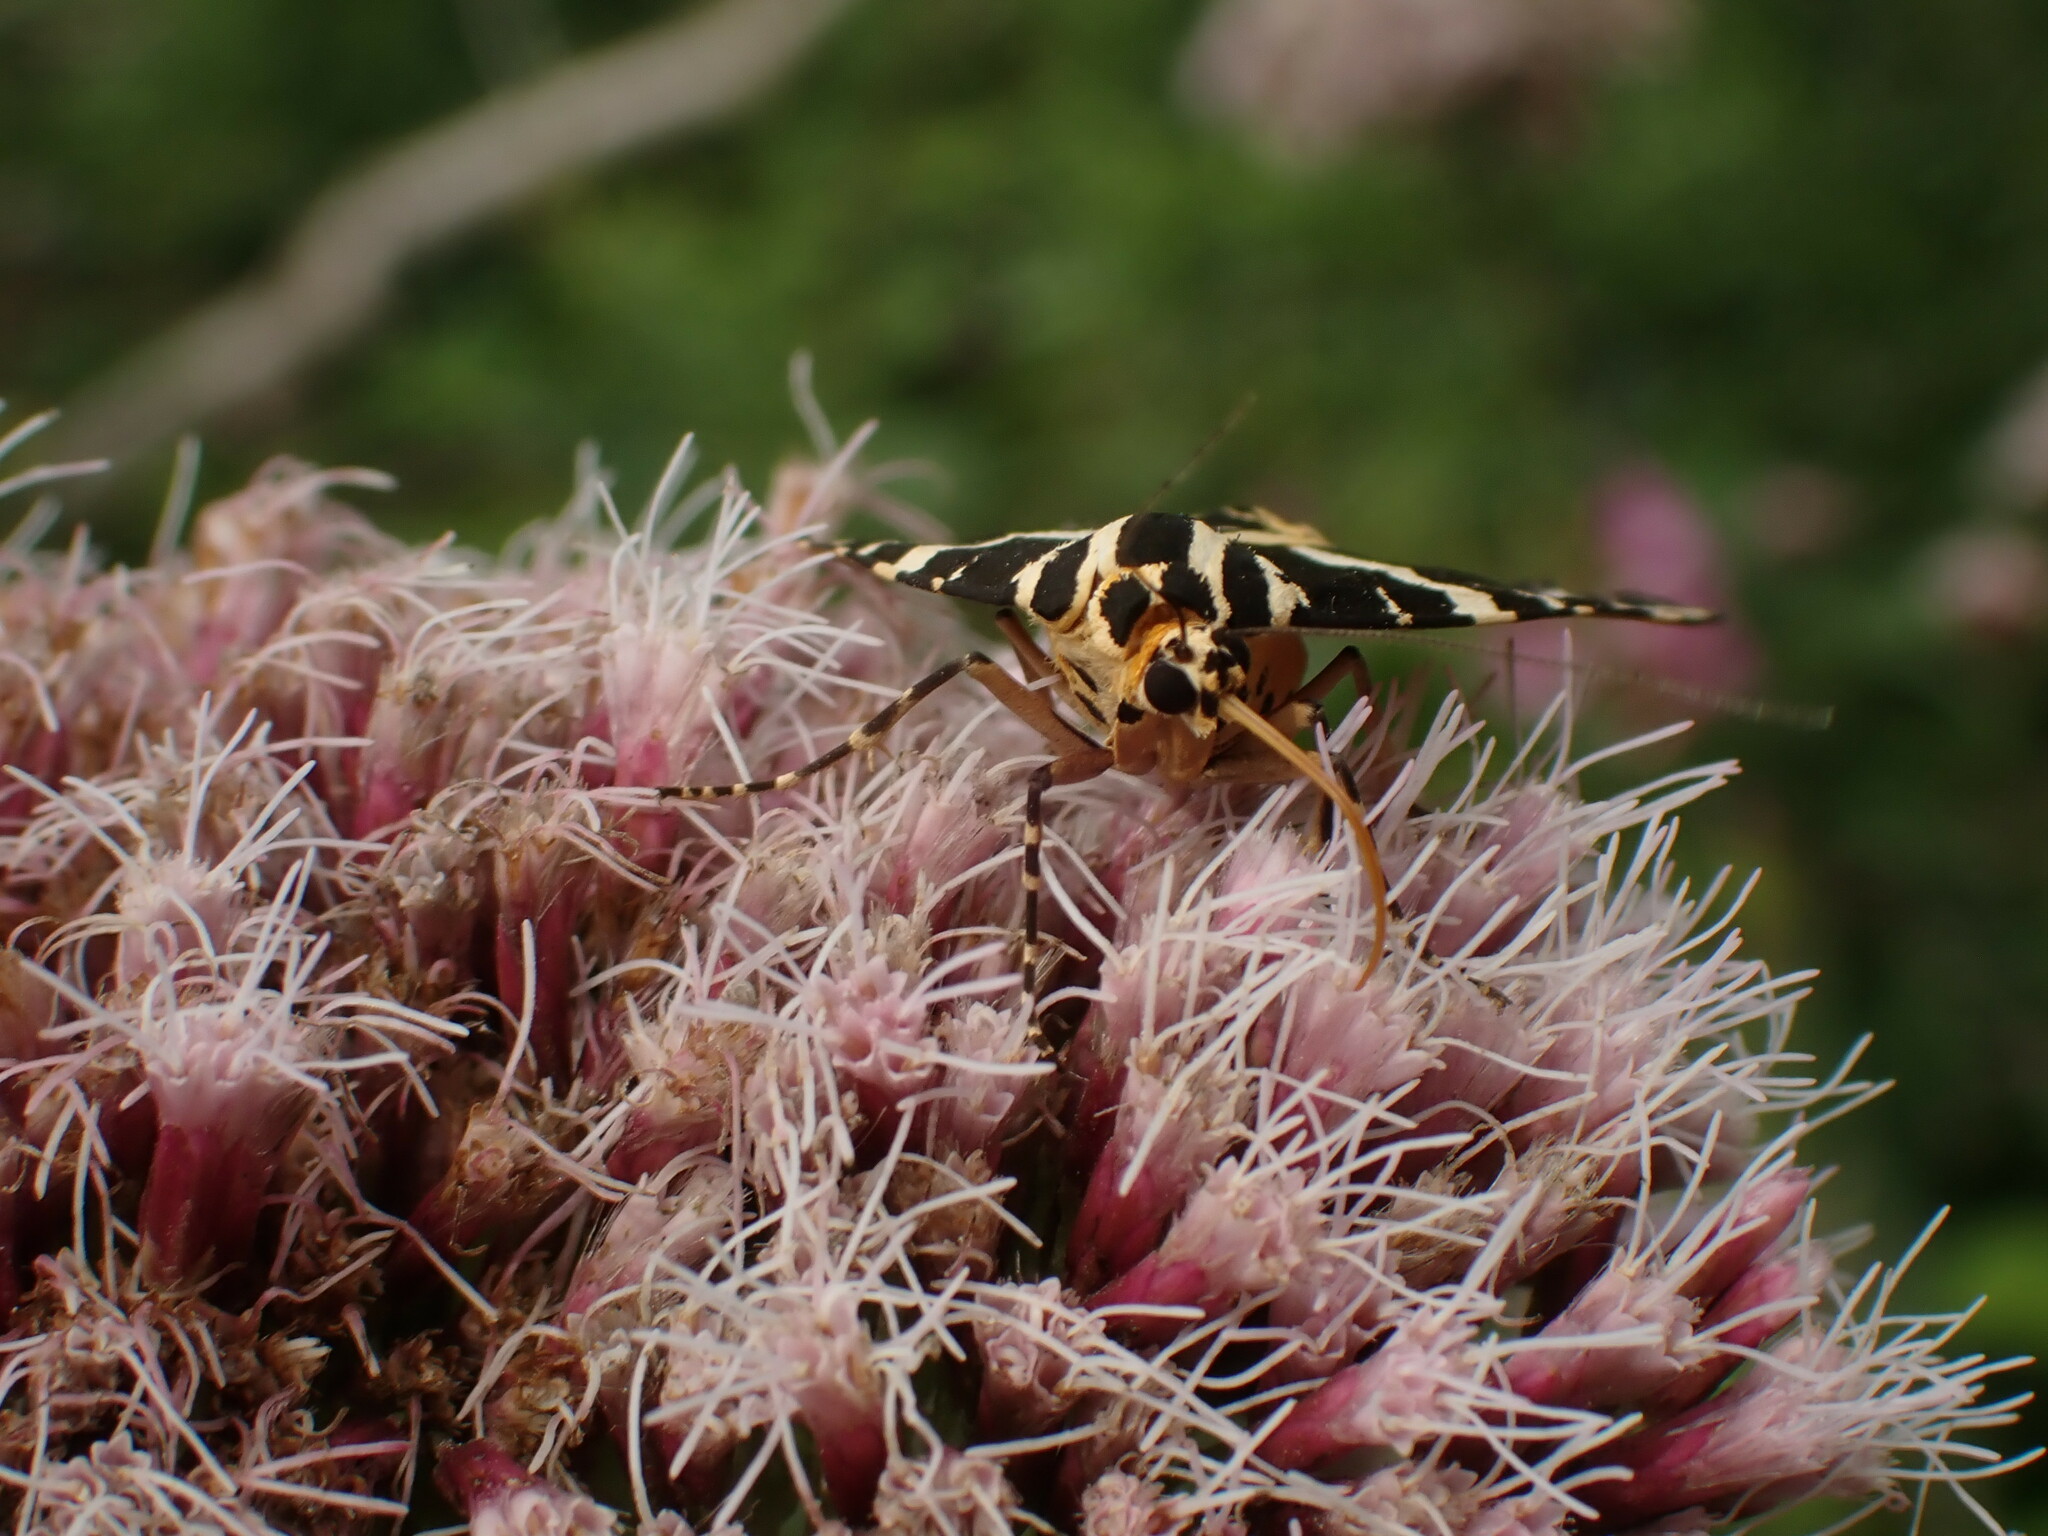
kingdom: Animalia
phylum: Arthropoda
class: Insecta
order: Lepidoptera
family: Erebidae
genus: Euplagia
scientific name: Euplagia quadripunctaria
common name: Jersey tiger
